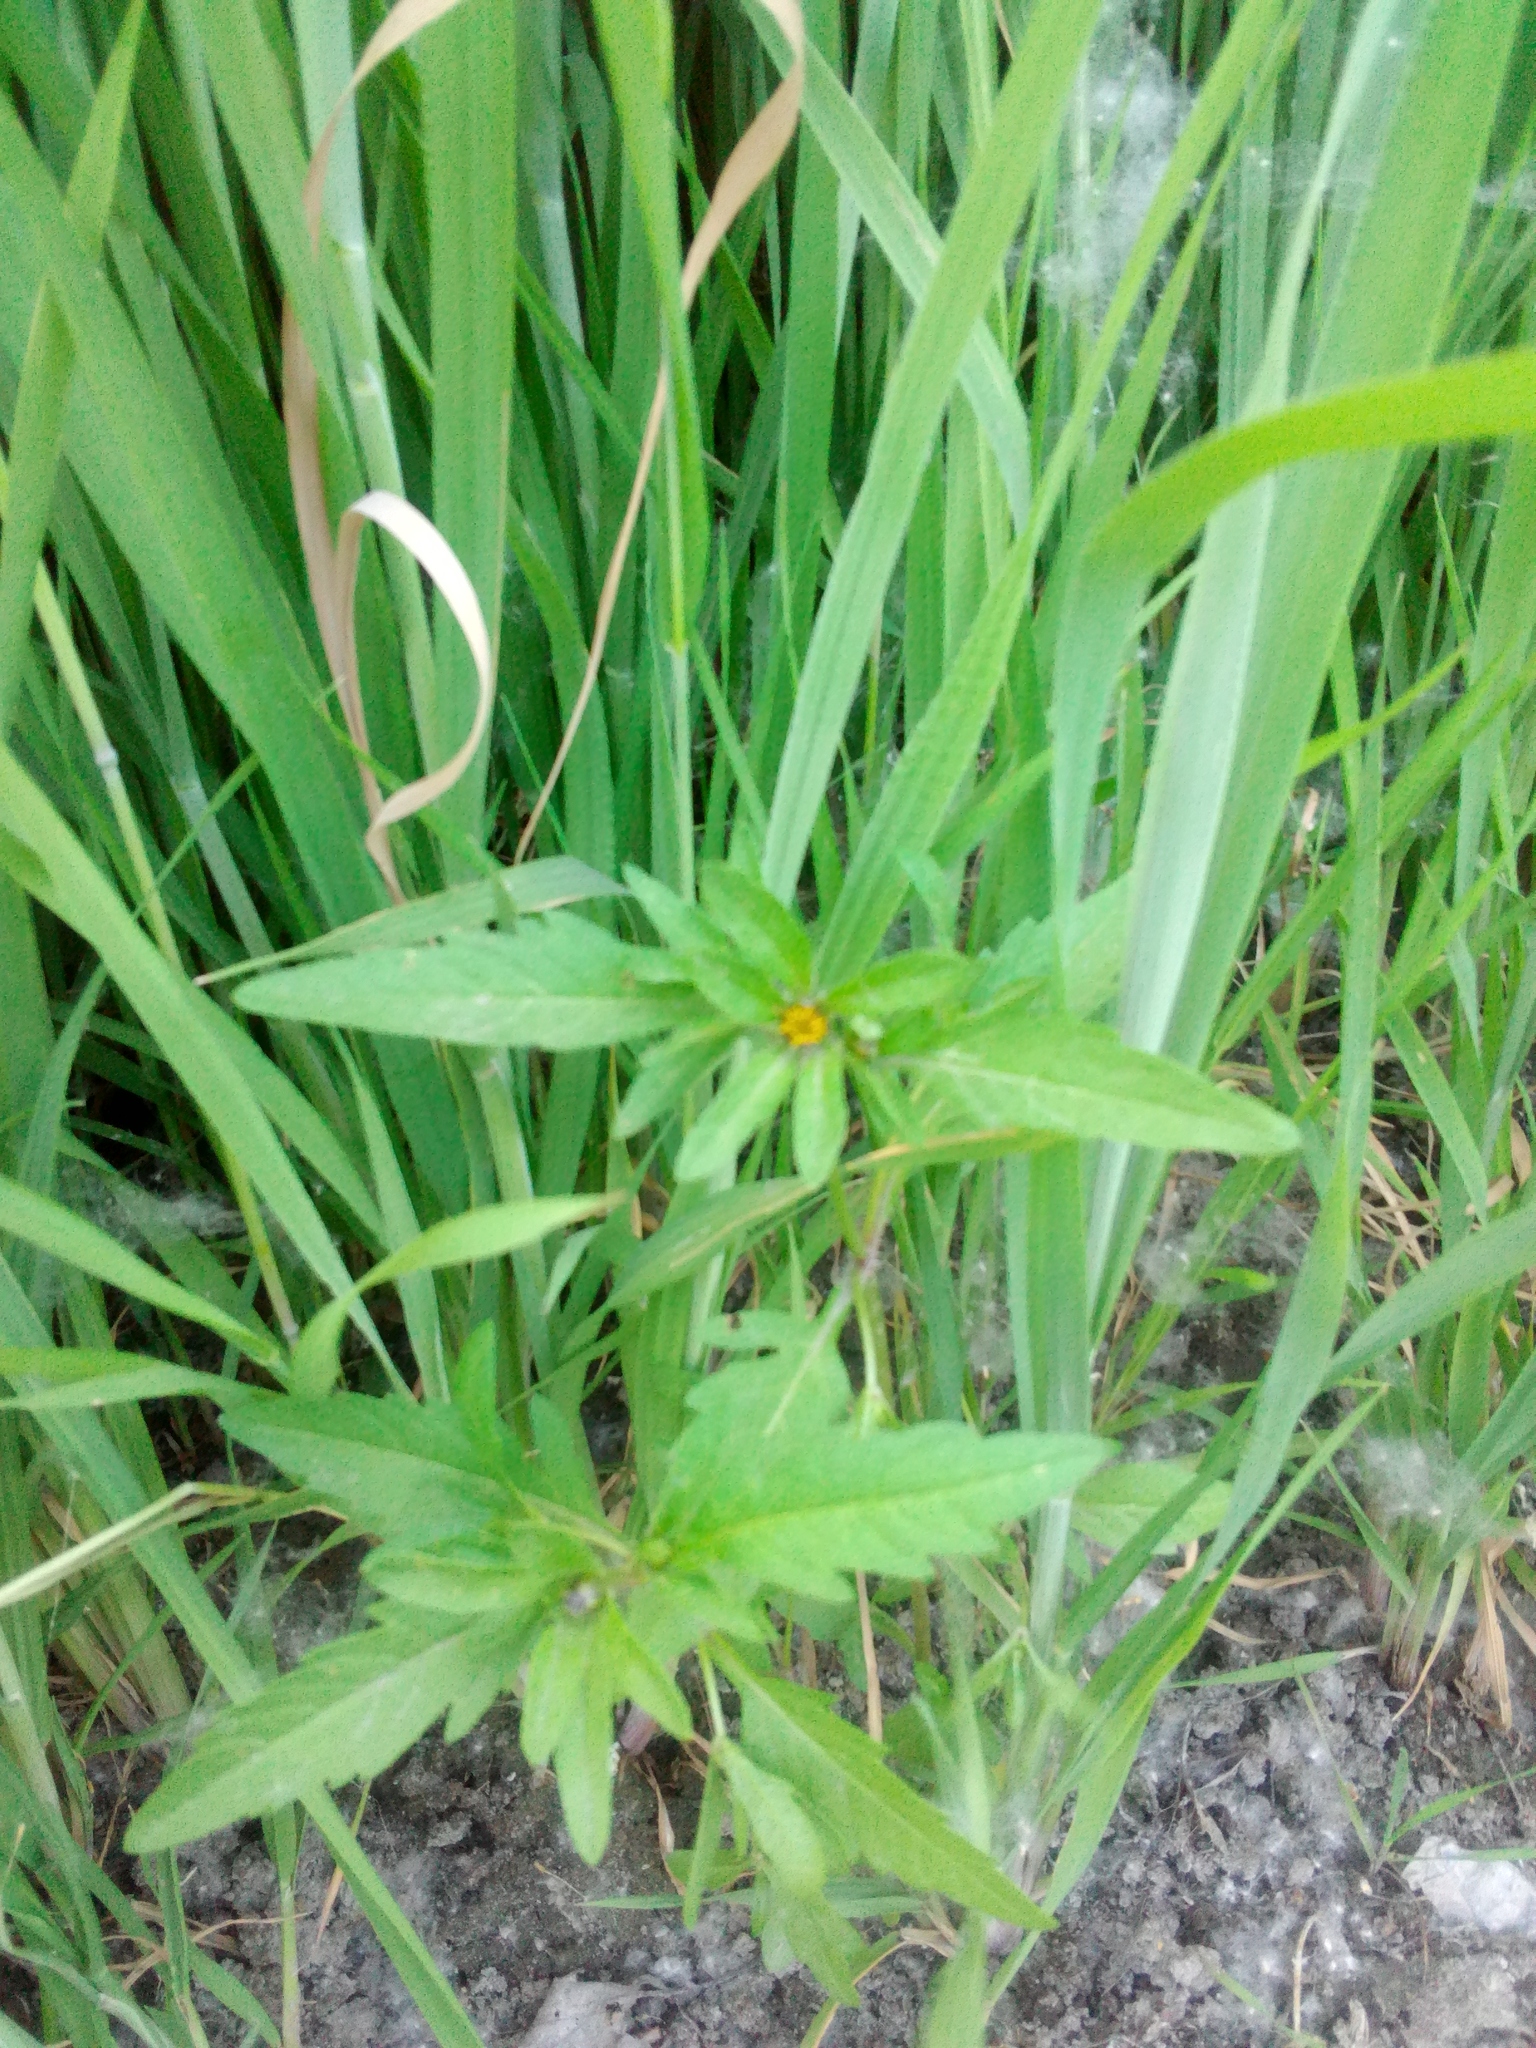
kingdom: Plantae
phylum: Tracheophyta
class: Magnoliopsida
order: Asterales
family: Asteraceae
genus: Bidens
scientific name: Bidens tripartita
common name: Trifid bur-marigold
